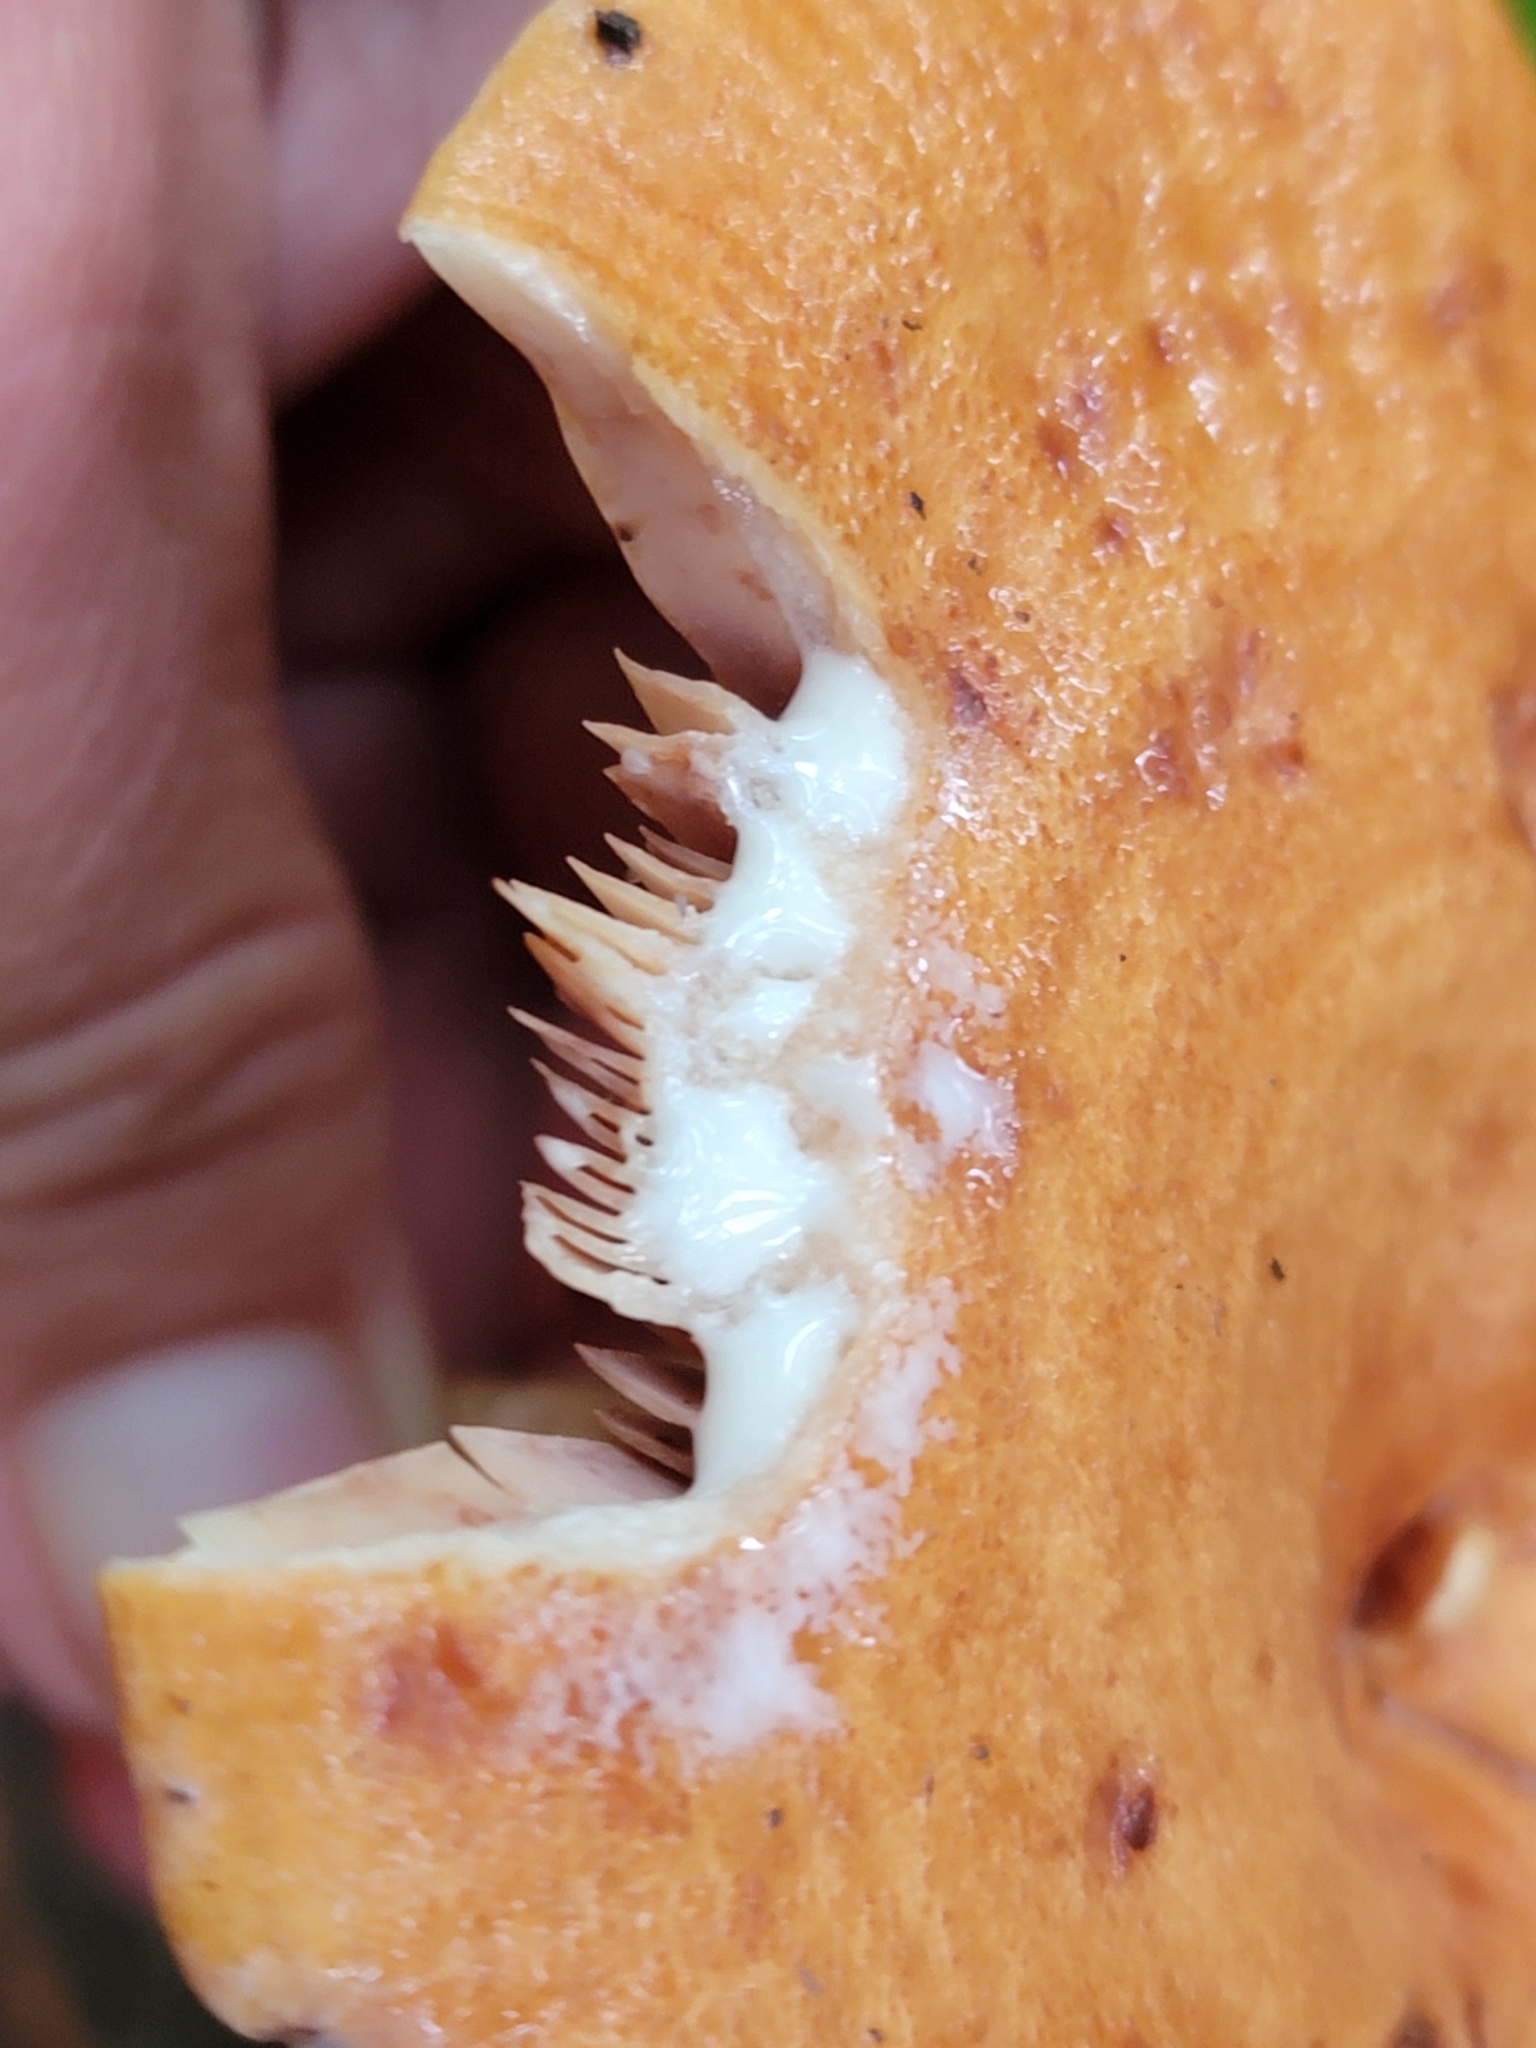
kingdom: Fungi
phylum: Basidiomycota
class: Agaricomycetes
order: Russulales
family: Russulaceae
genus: Lactarius
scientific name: Lactarius peckii
